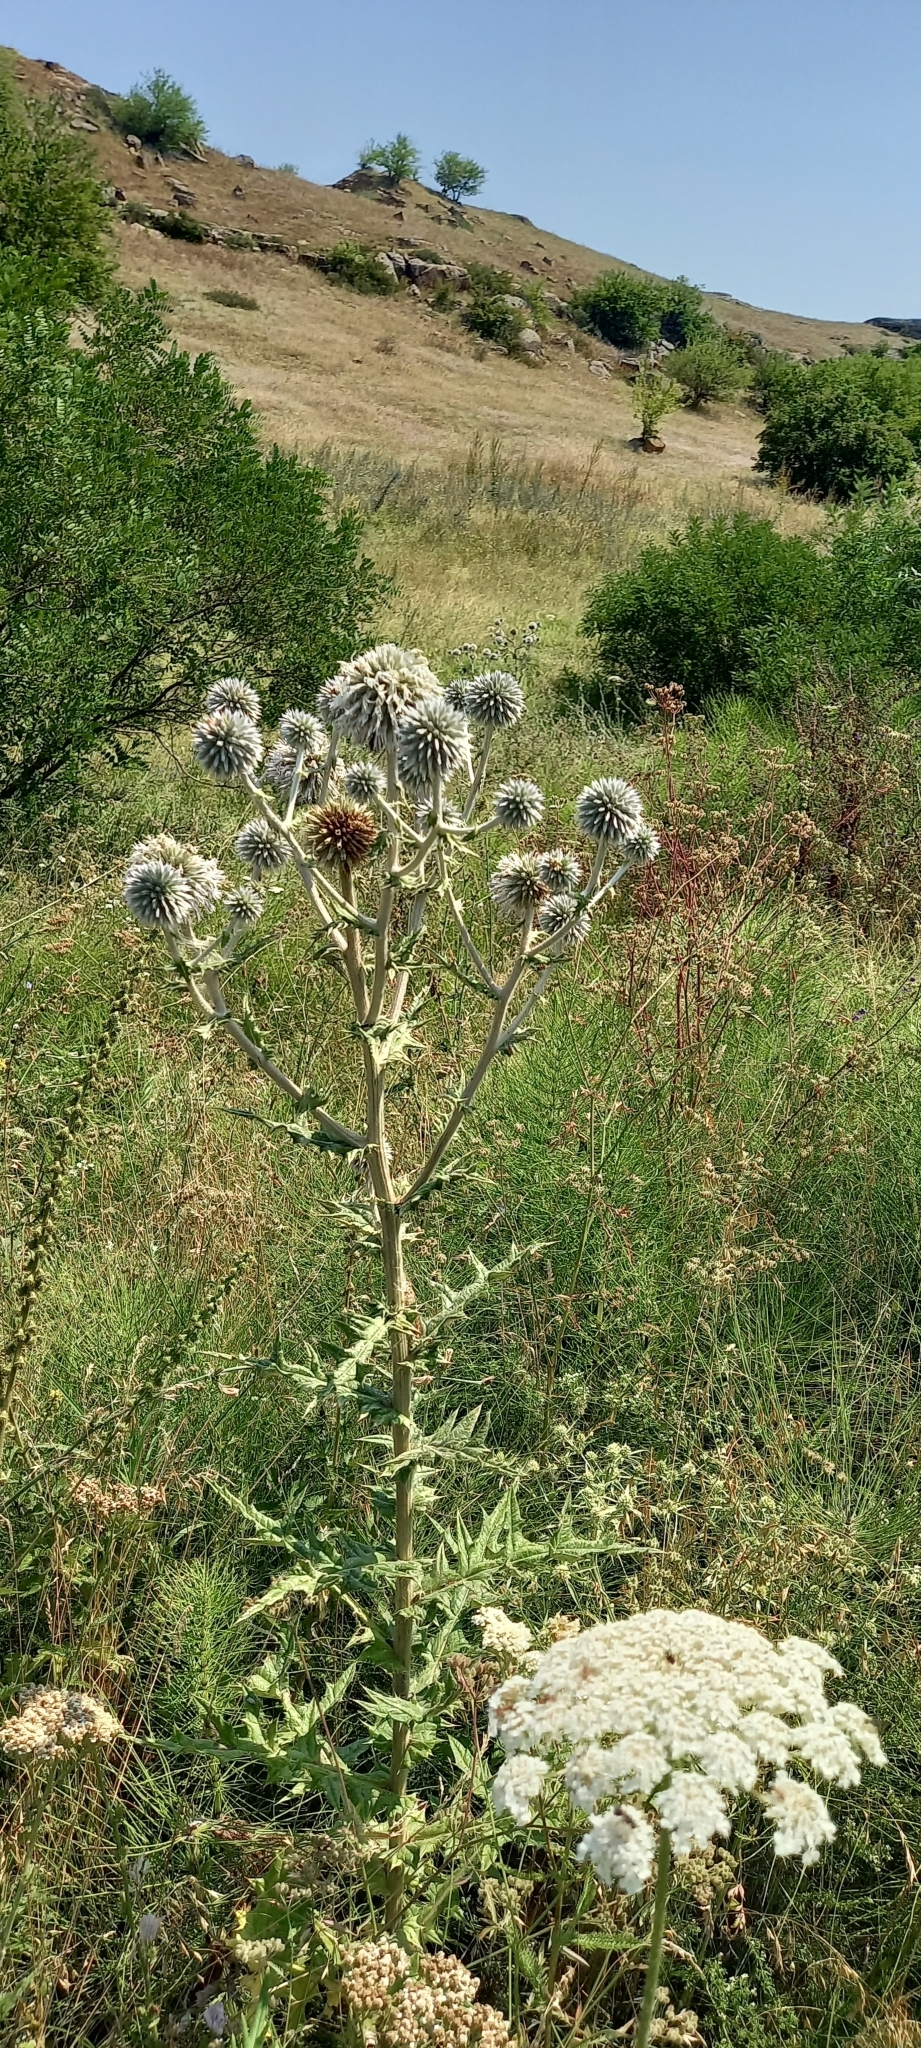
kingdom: Plantae
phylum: Tracheophyta
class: Magnoliopsida
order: Asterales
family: Asteraceae
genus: Echinops
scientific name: Echinops sphaerocephalus
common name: Glandular globe-thistle
